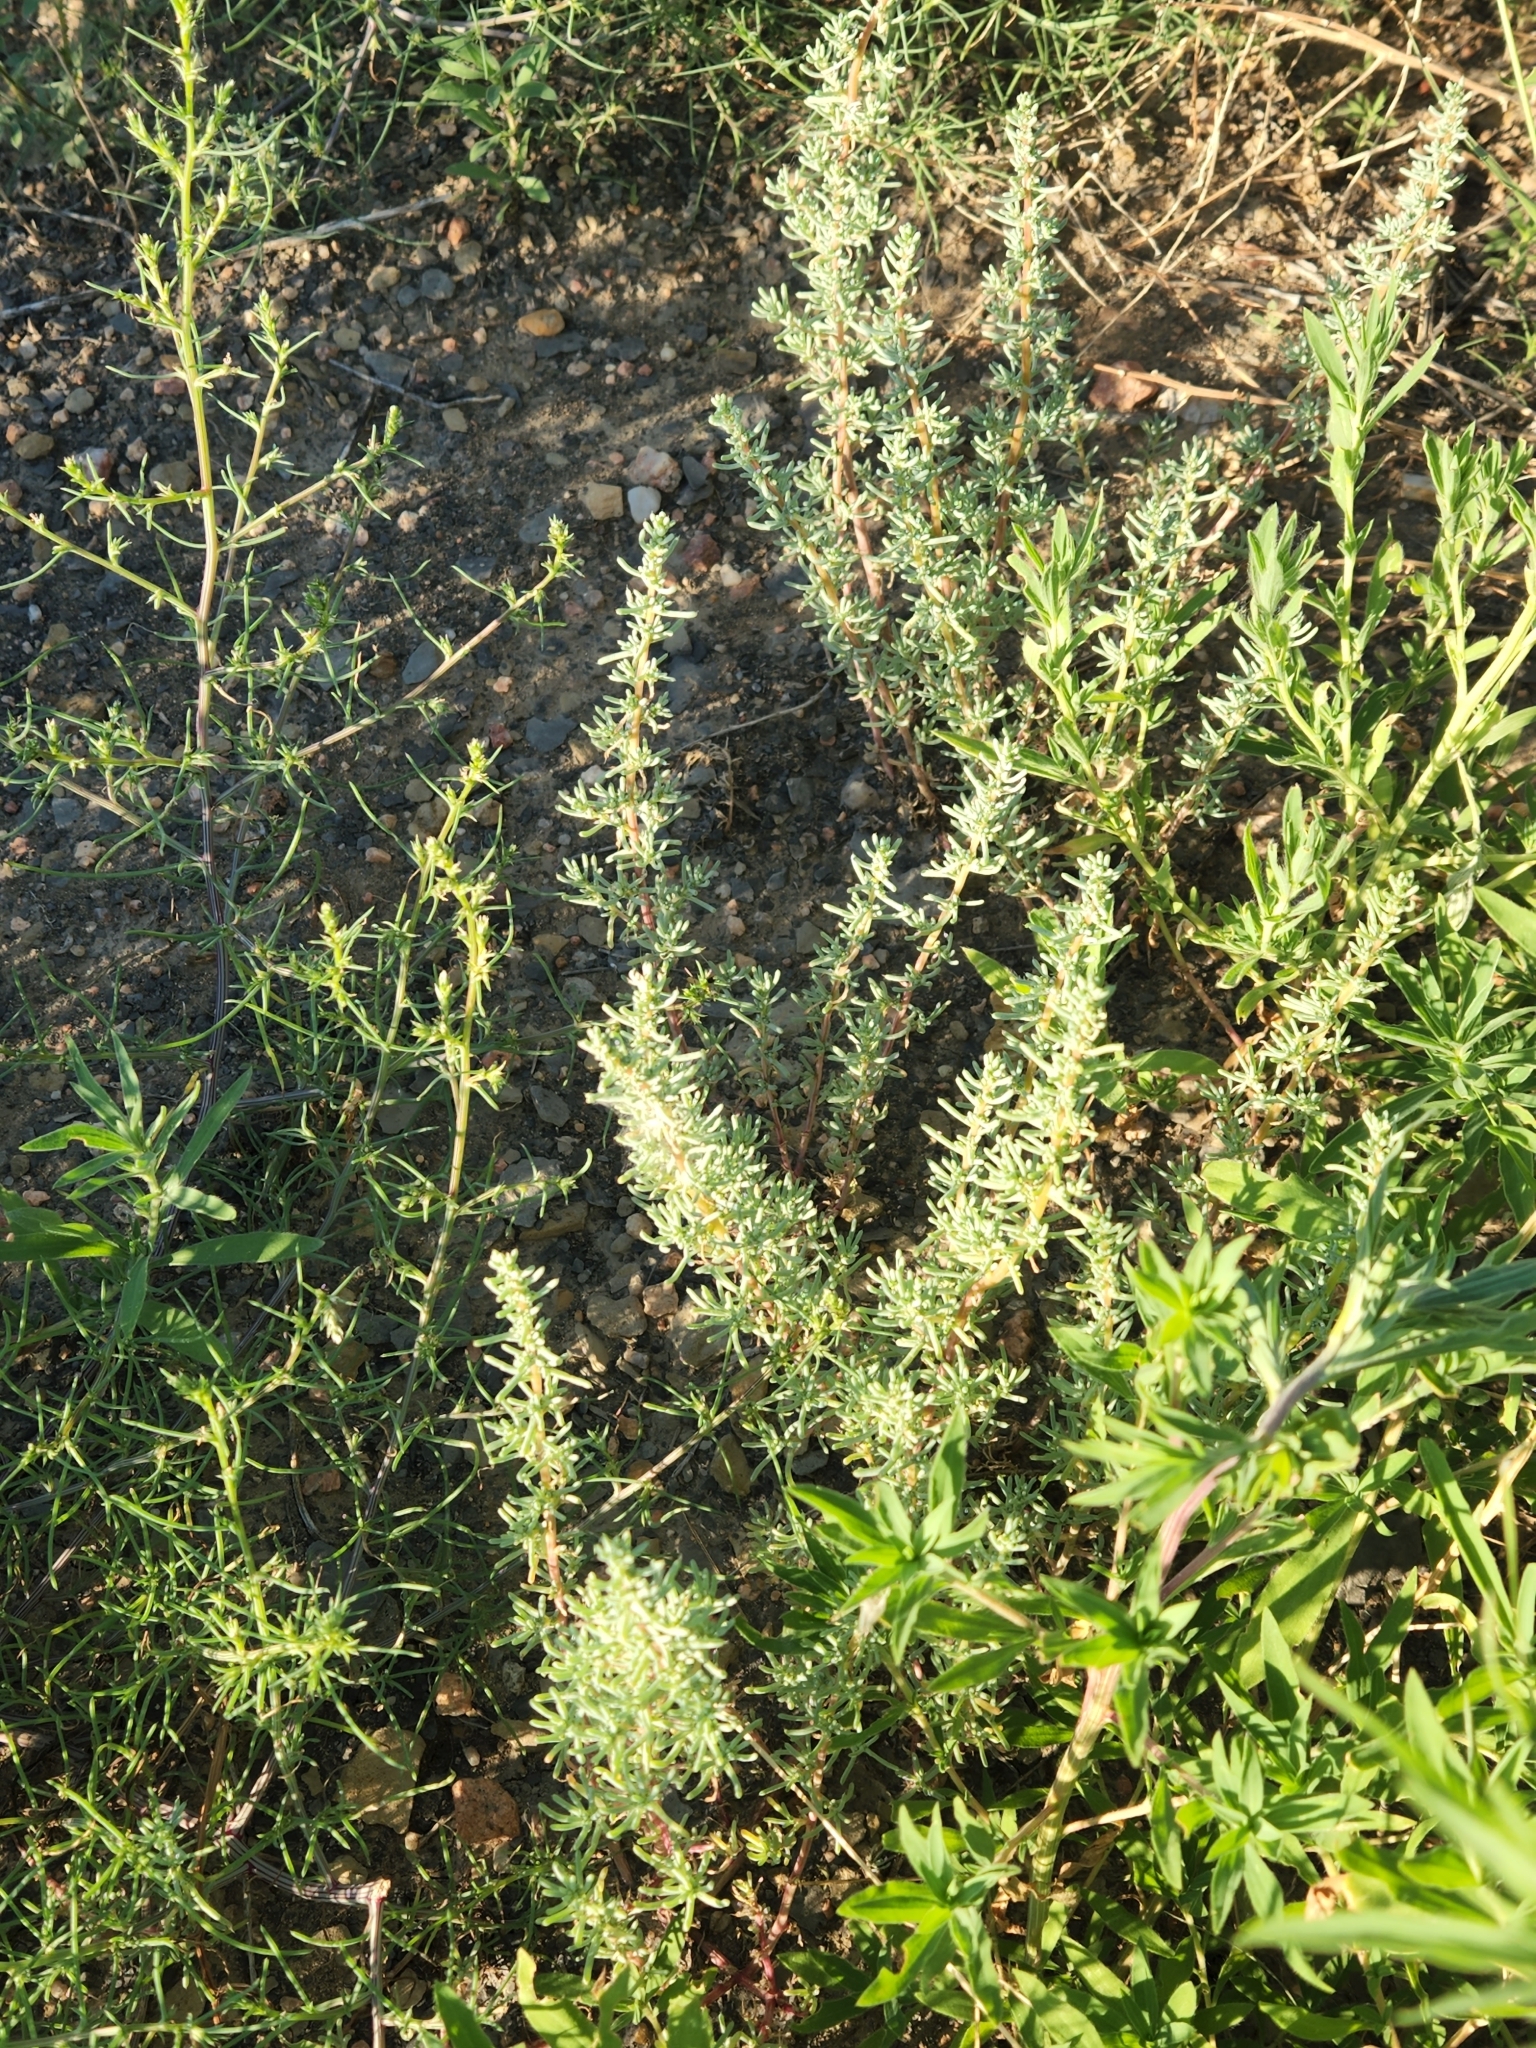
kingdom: Plantae
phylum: Tracheophyta
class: Magnoliopsida
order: Caryophyllales
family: Amaranthaceae
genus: Halogeton
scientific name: Halogeton glomeratus
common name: Saltlover
